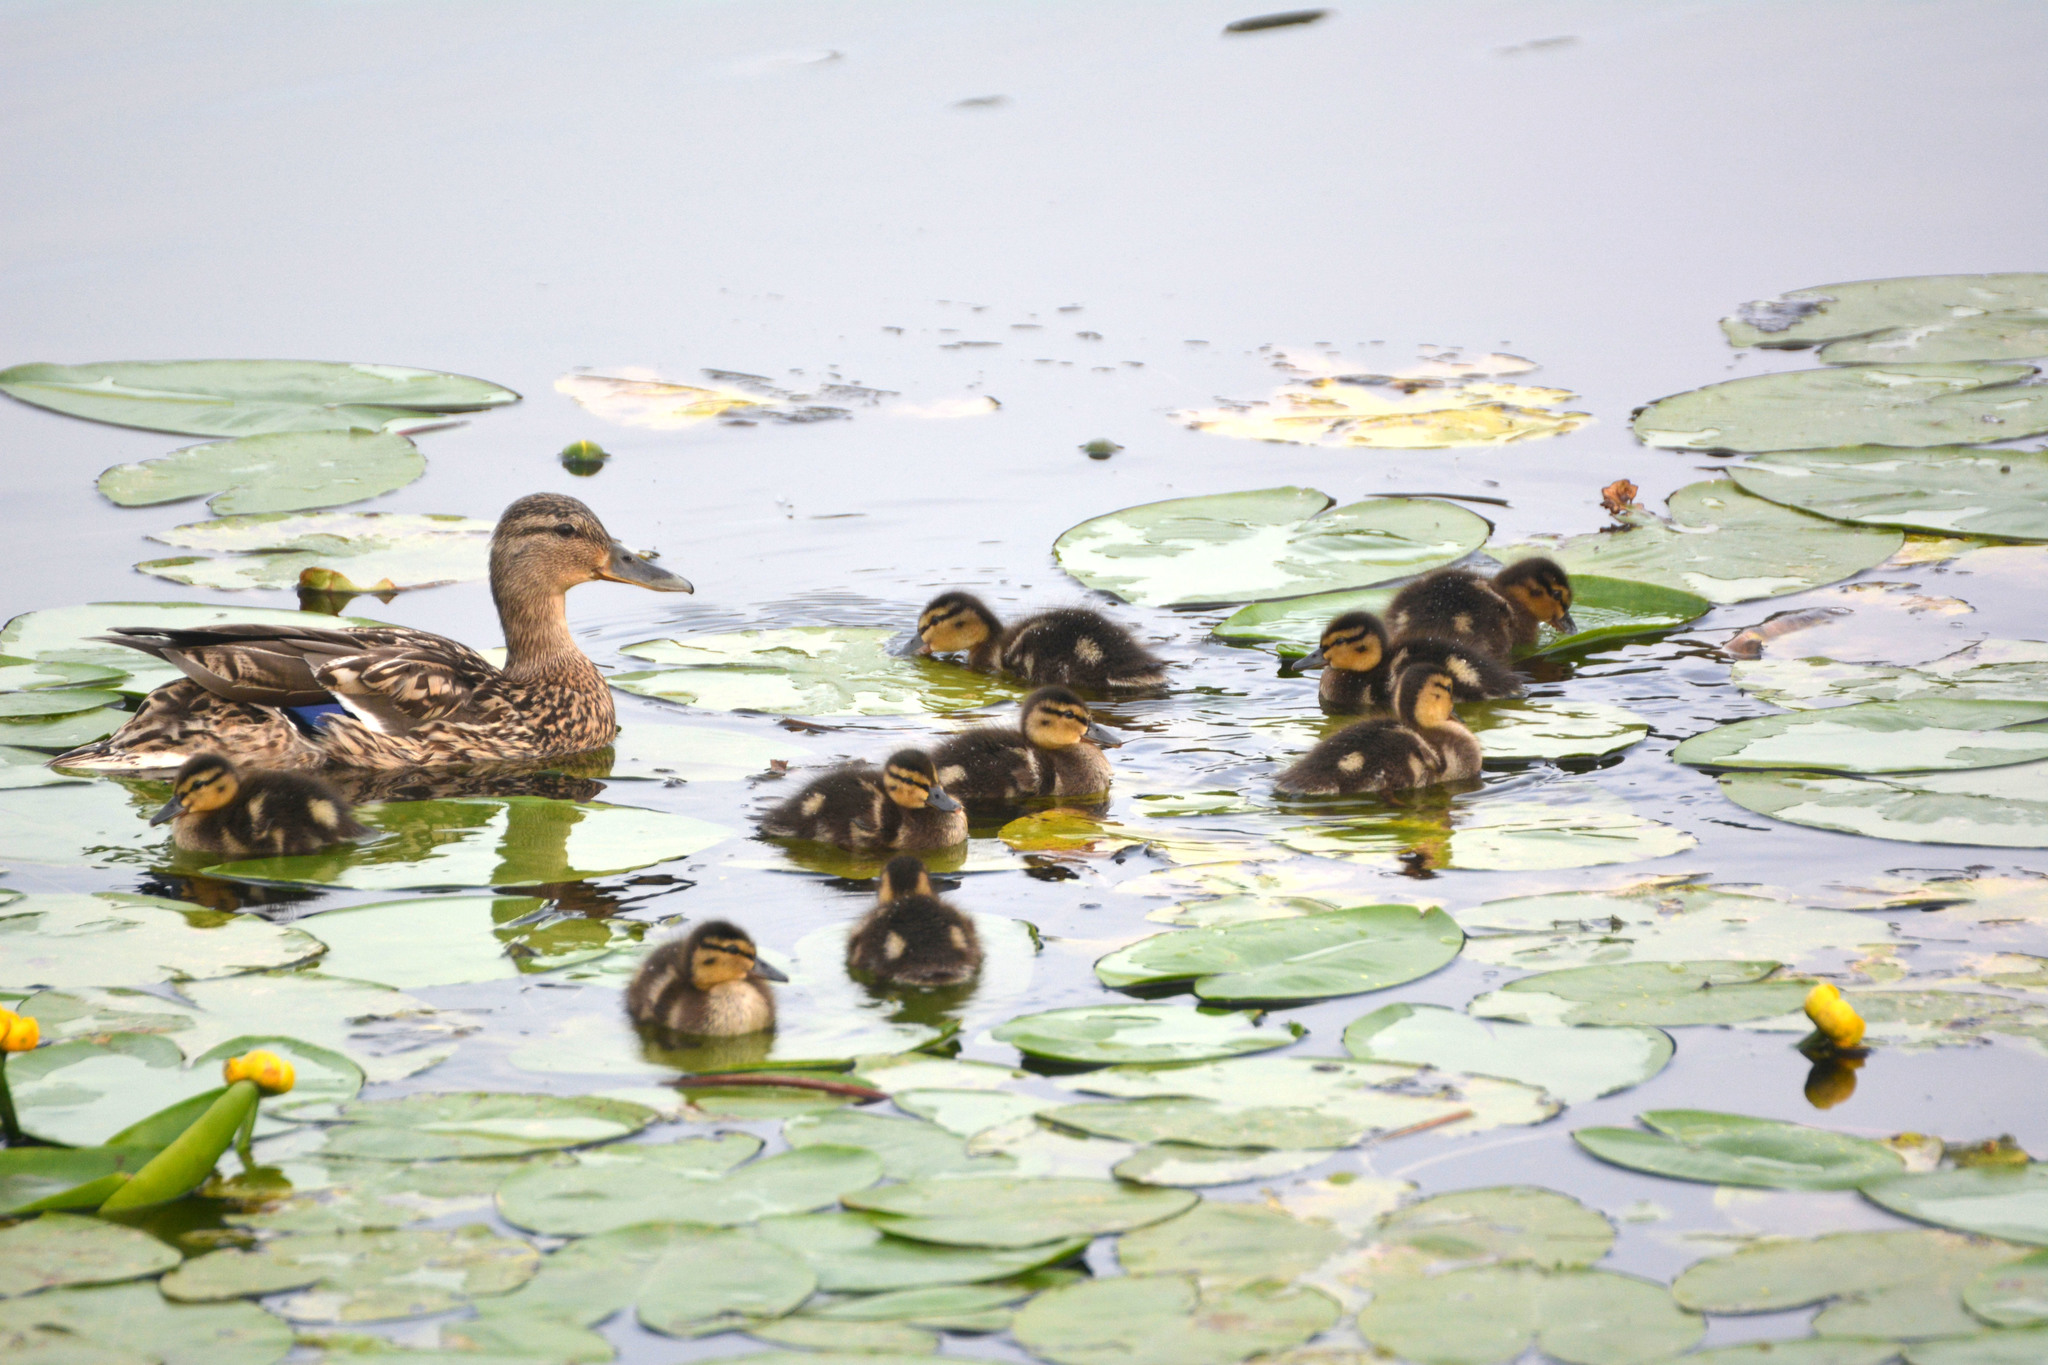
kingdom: Animalia
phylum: Chordata
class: Aves
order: Anseriformes
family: Anatidae
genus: Anas
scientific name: Anas platyrhynchos
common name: Mallard
